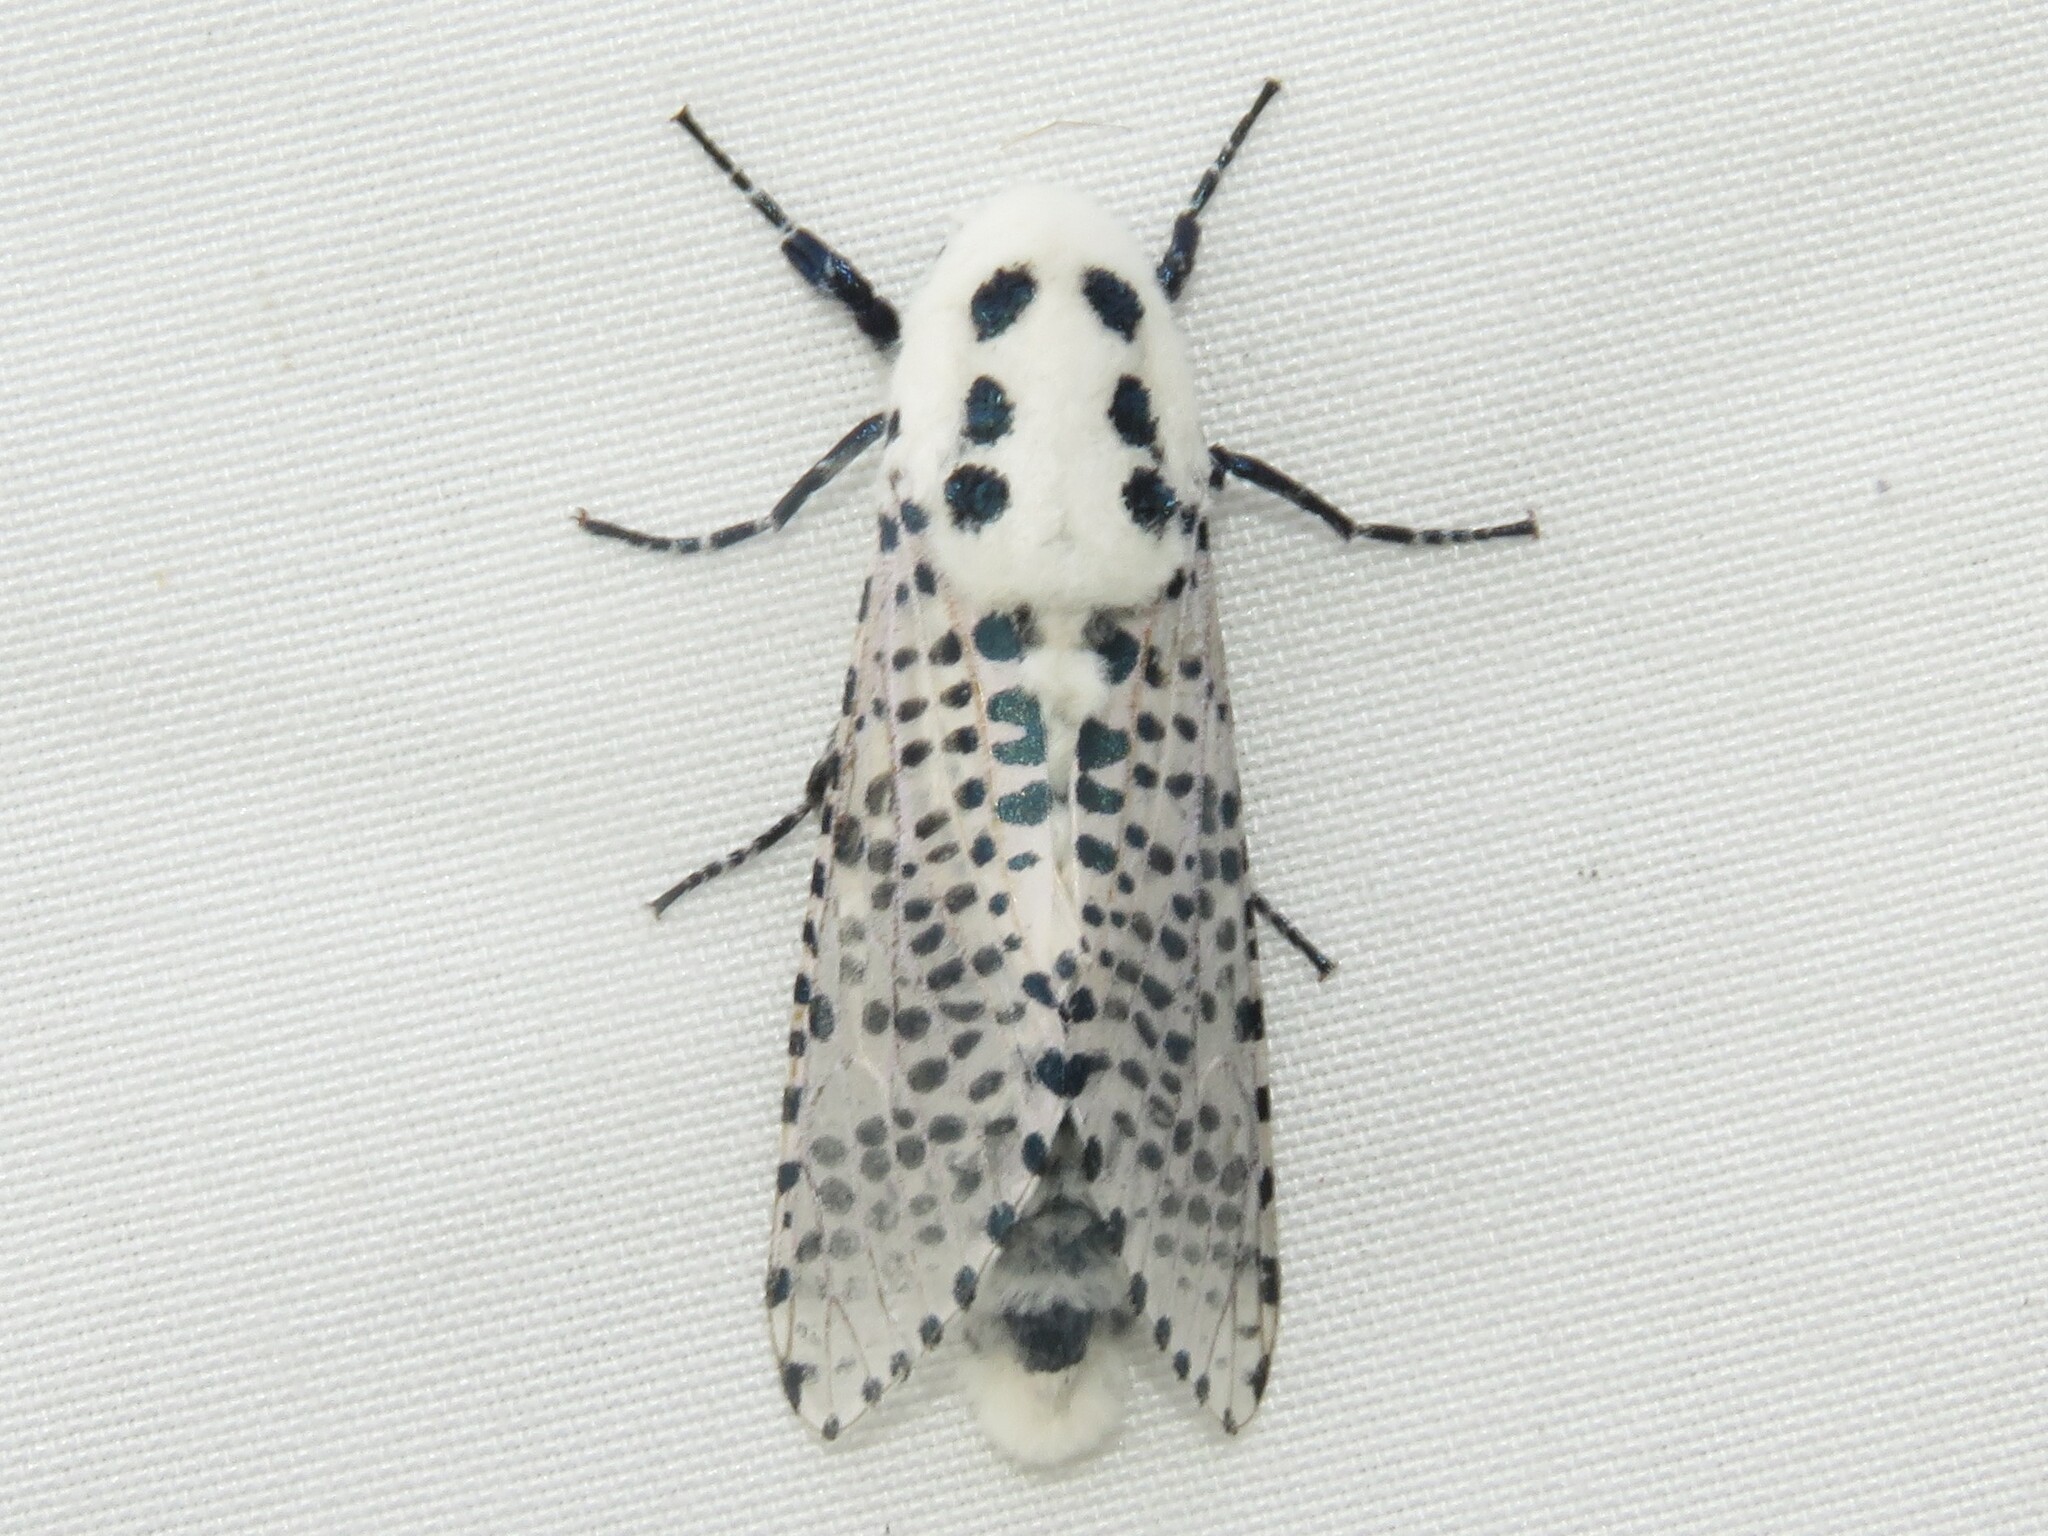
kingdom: Animalia
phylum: Arthropoda
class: Insecta
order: Lepidoptera
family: Cossidae
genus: Zeuzera
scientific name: Zeuzera pyrina
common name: Leopard moth
